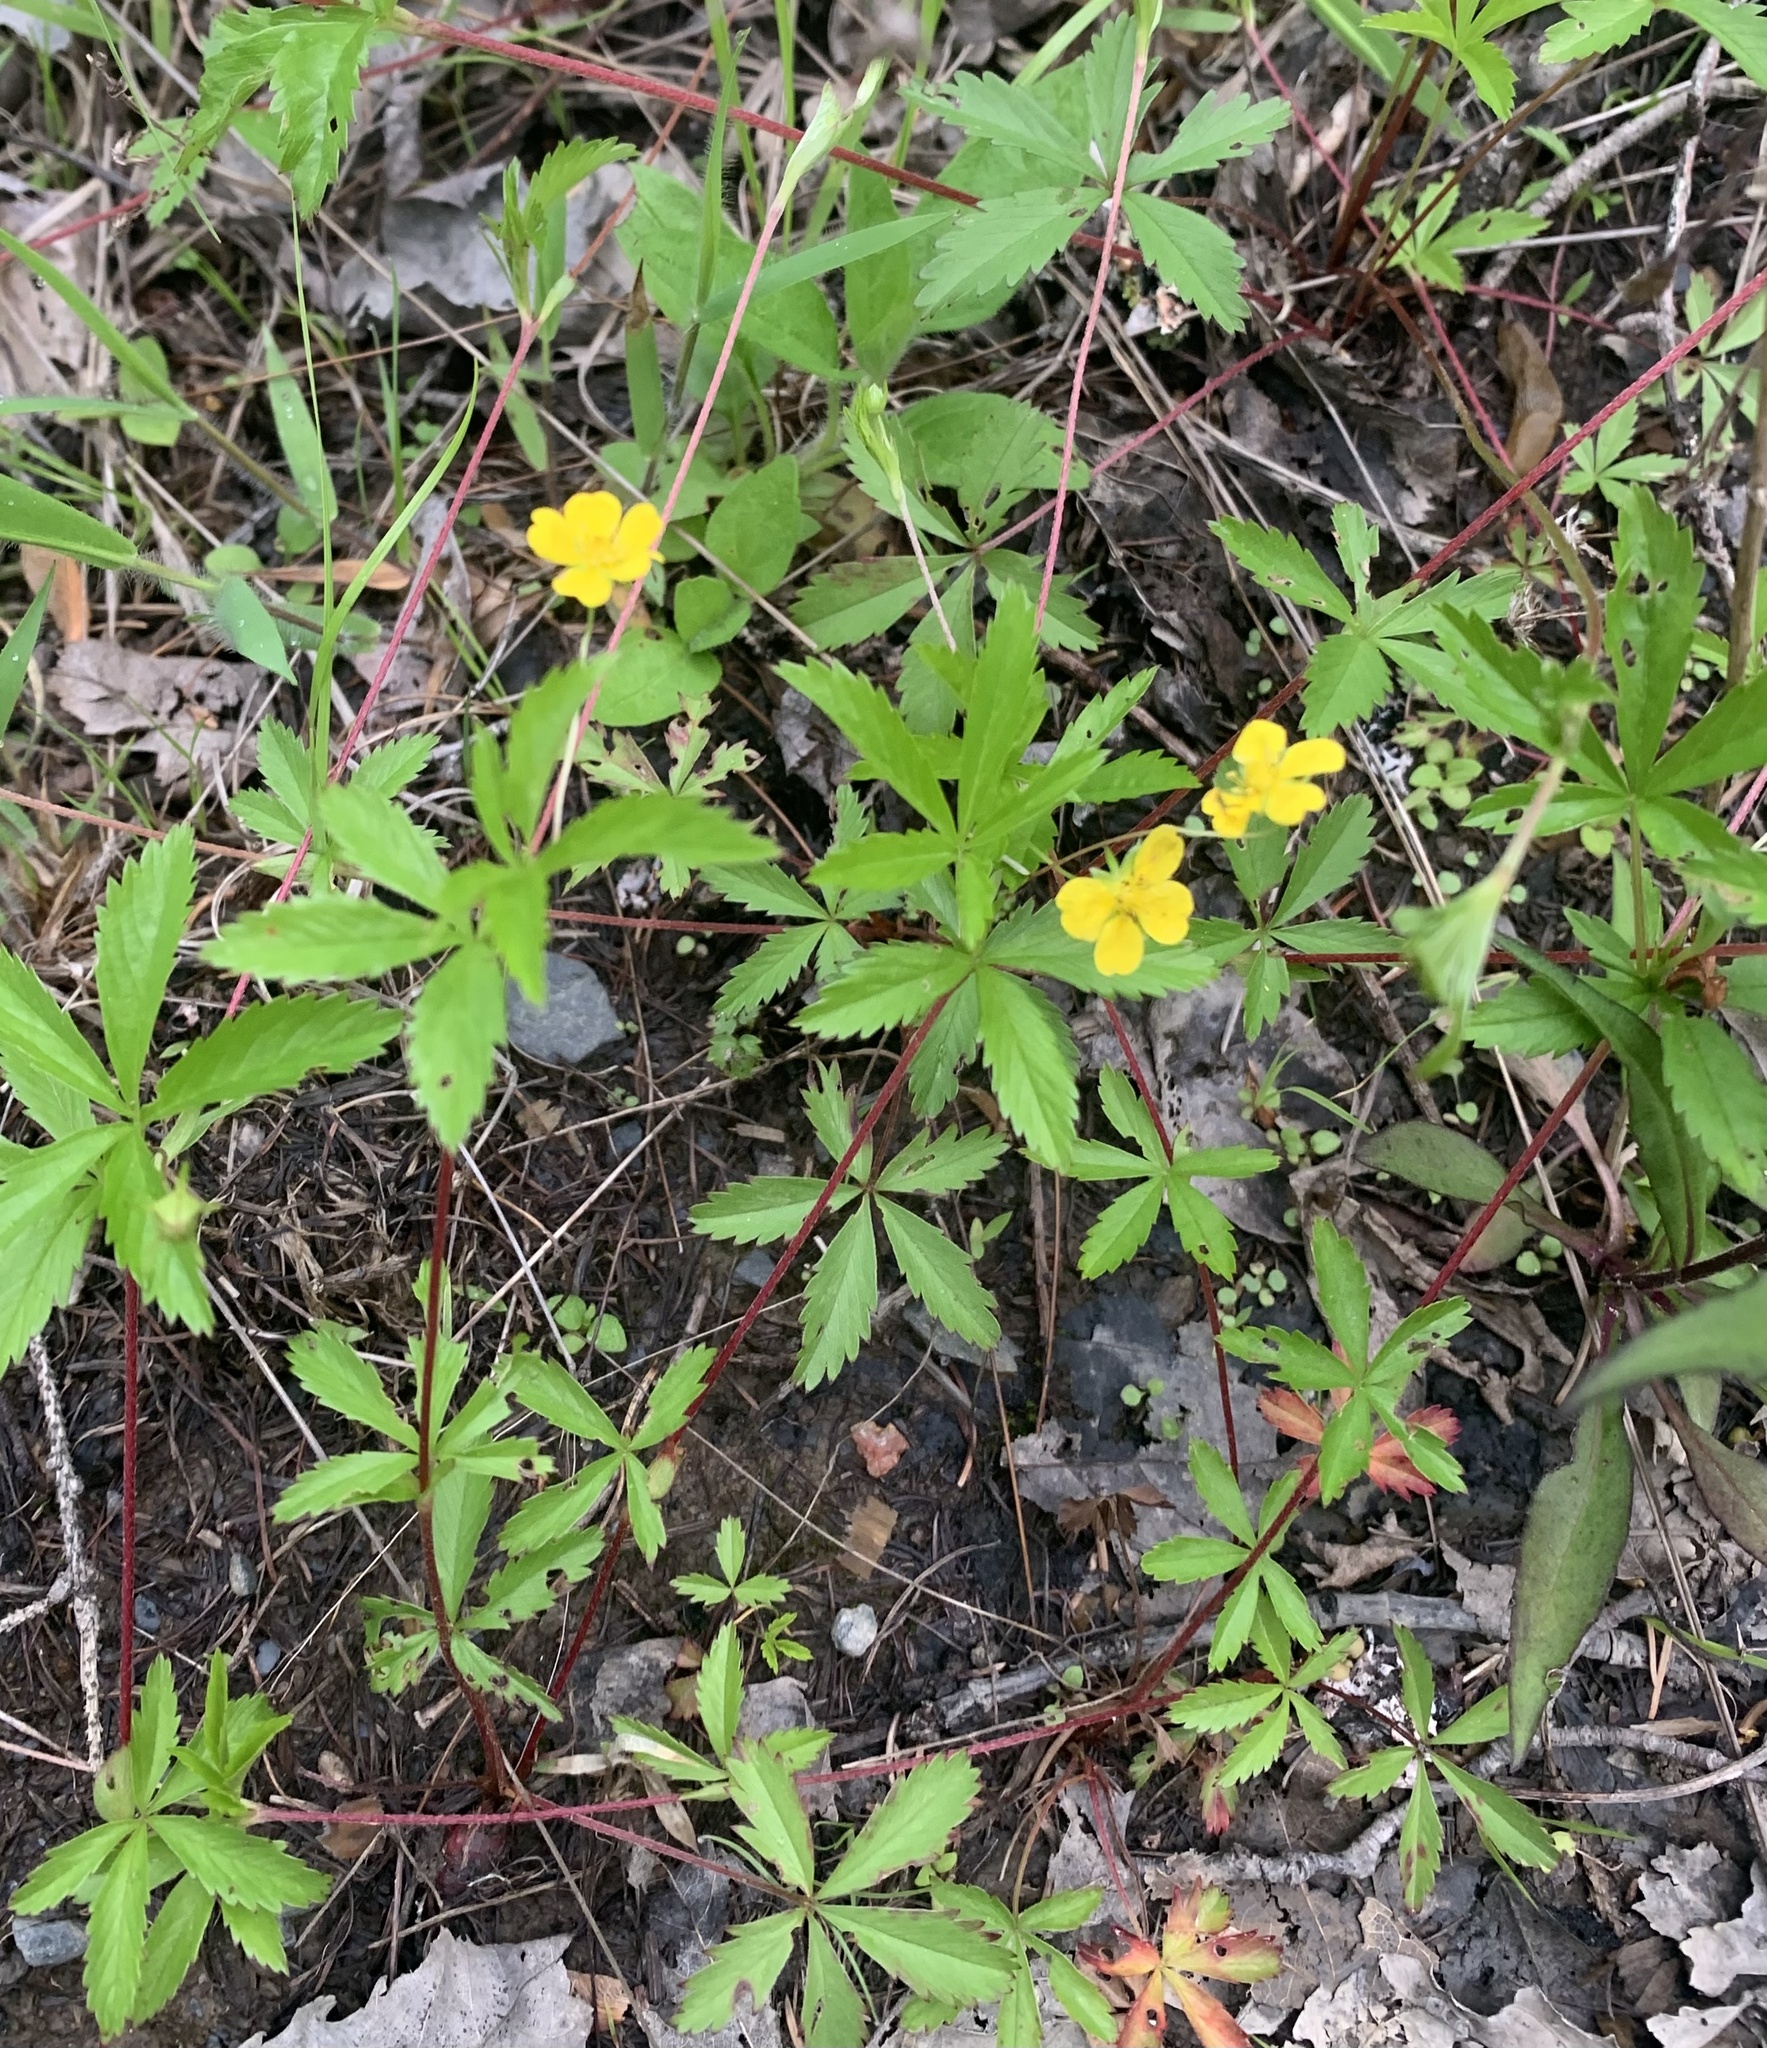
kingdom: Plantae
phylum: Tracheophyta
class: Magnoliopsida
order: Rosales
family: Rosaceae
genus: Potentilla
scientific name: Potentilla simplex
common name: Old field cinquefoil
